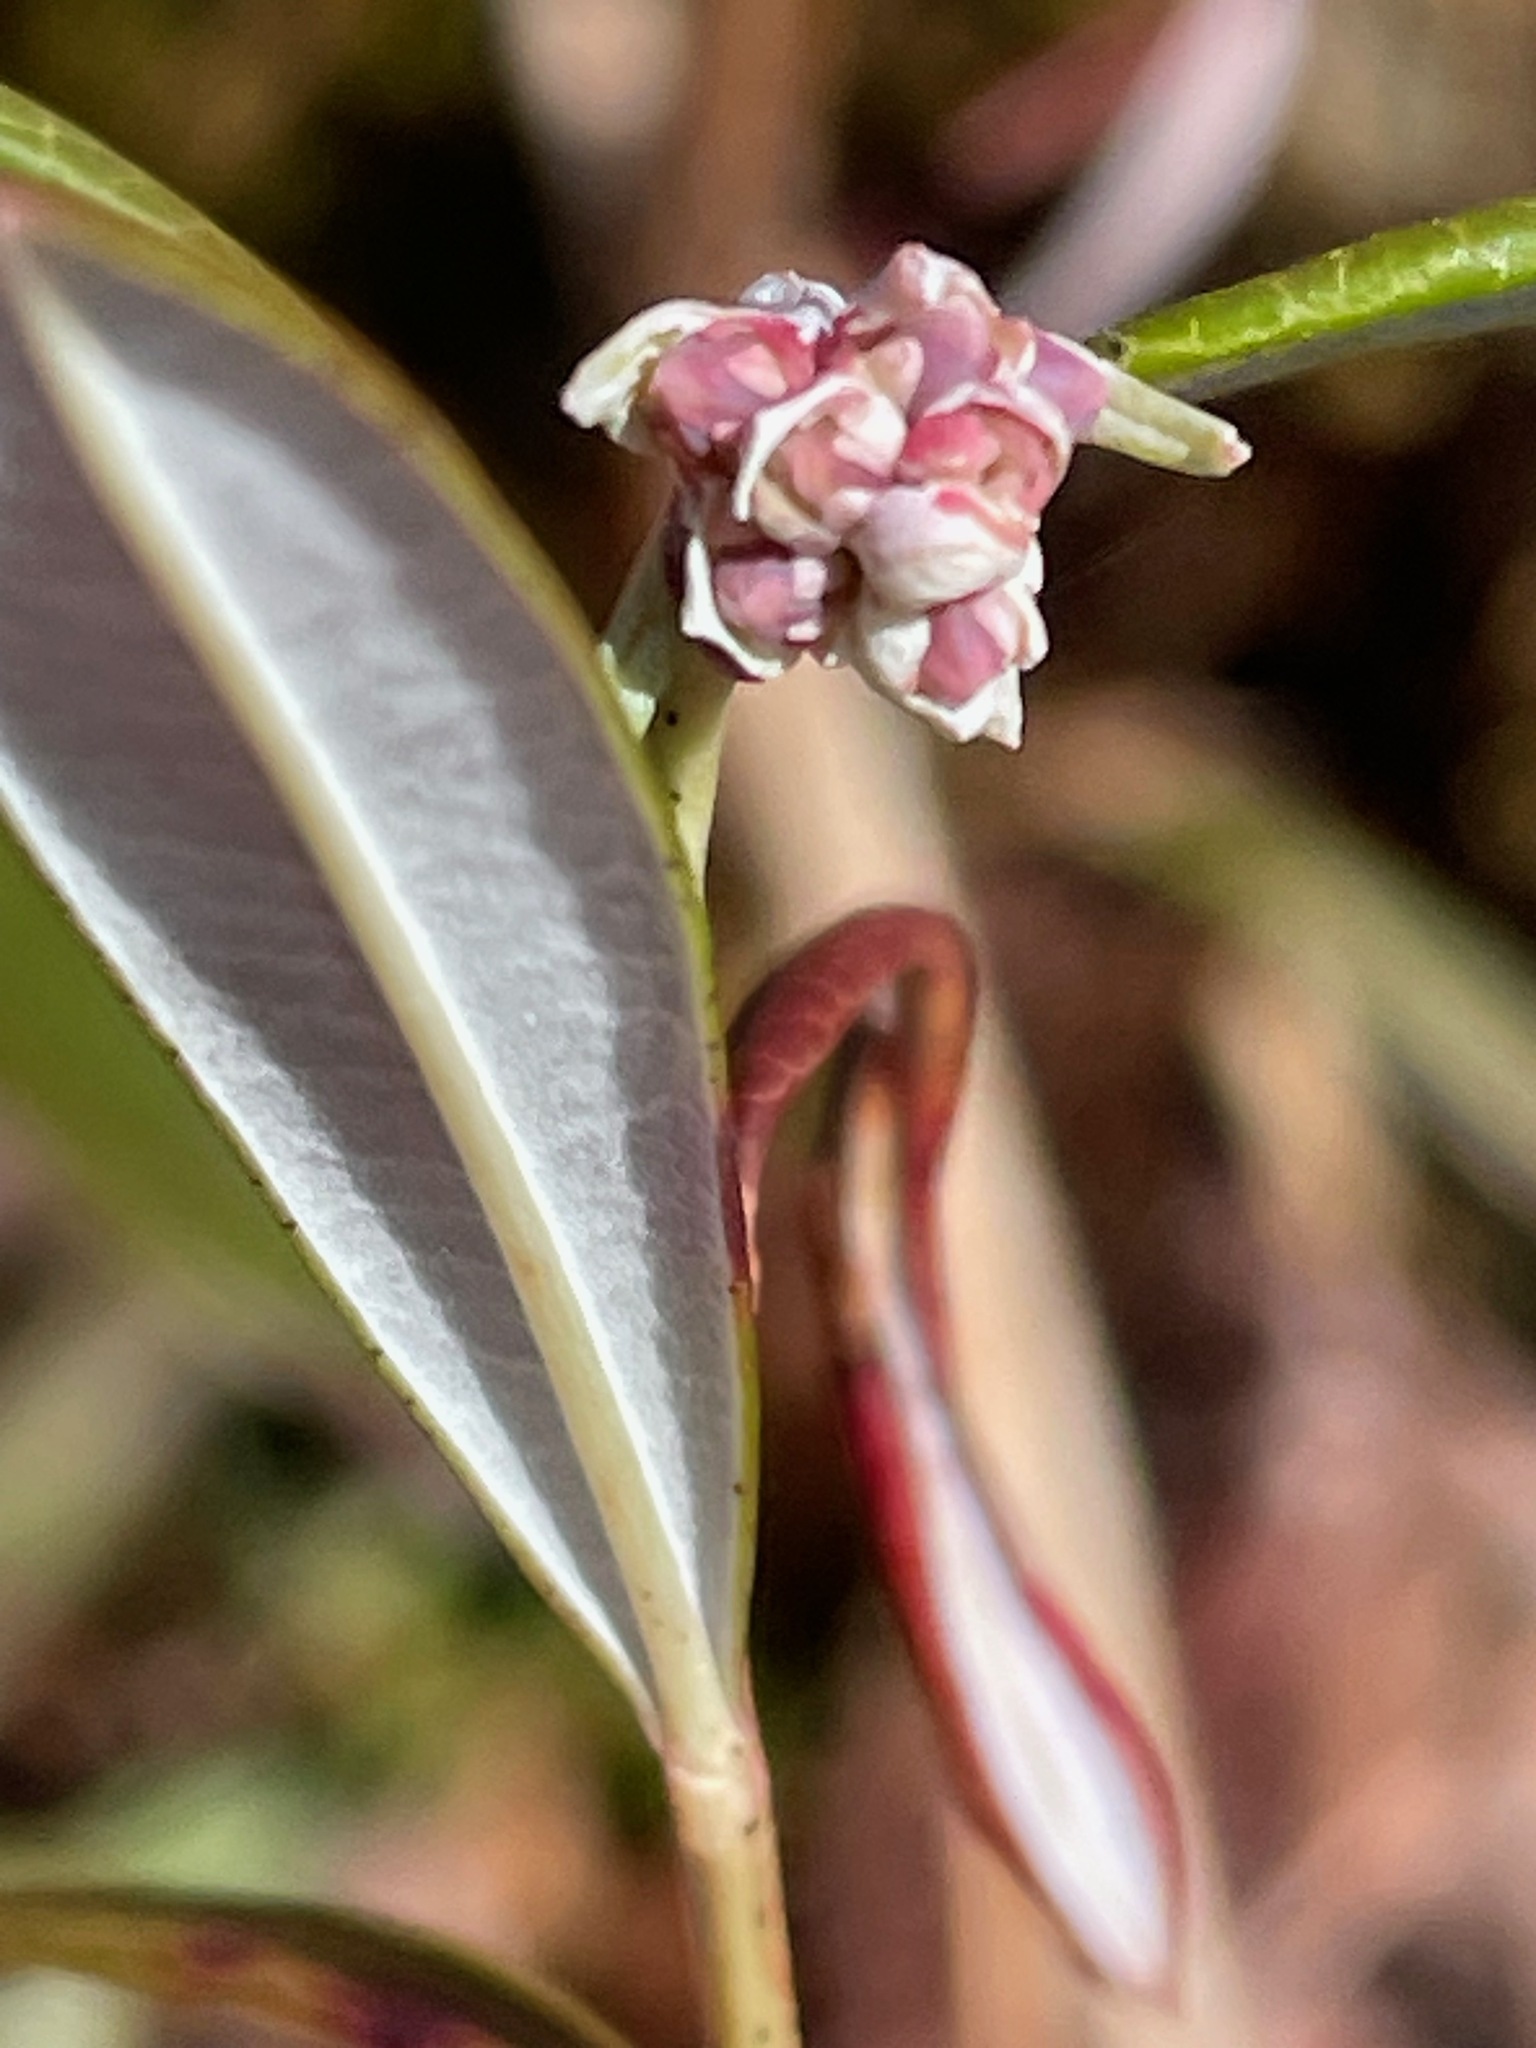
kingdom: Plantae
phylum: Tracheophyta
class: Magnoliopsida
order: Ericales
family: Ericaceae
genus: Andromeda
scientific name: Andromeda polifolia
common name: Bog-rosemary
